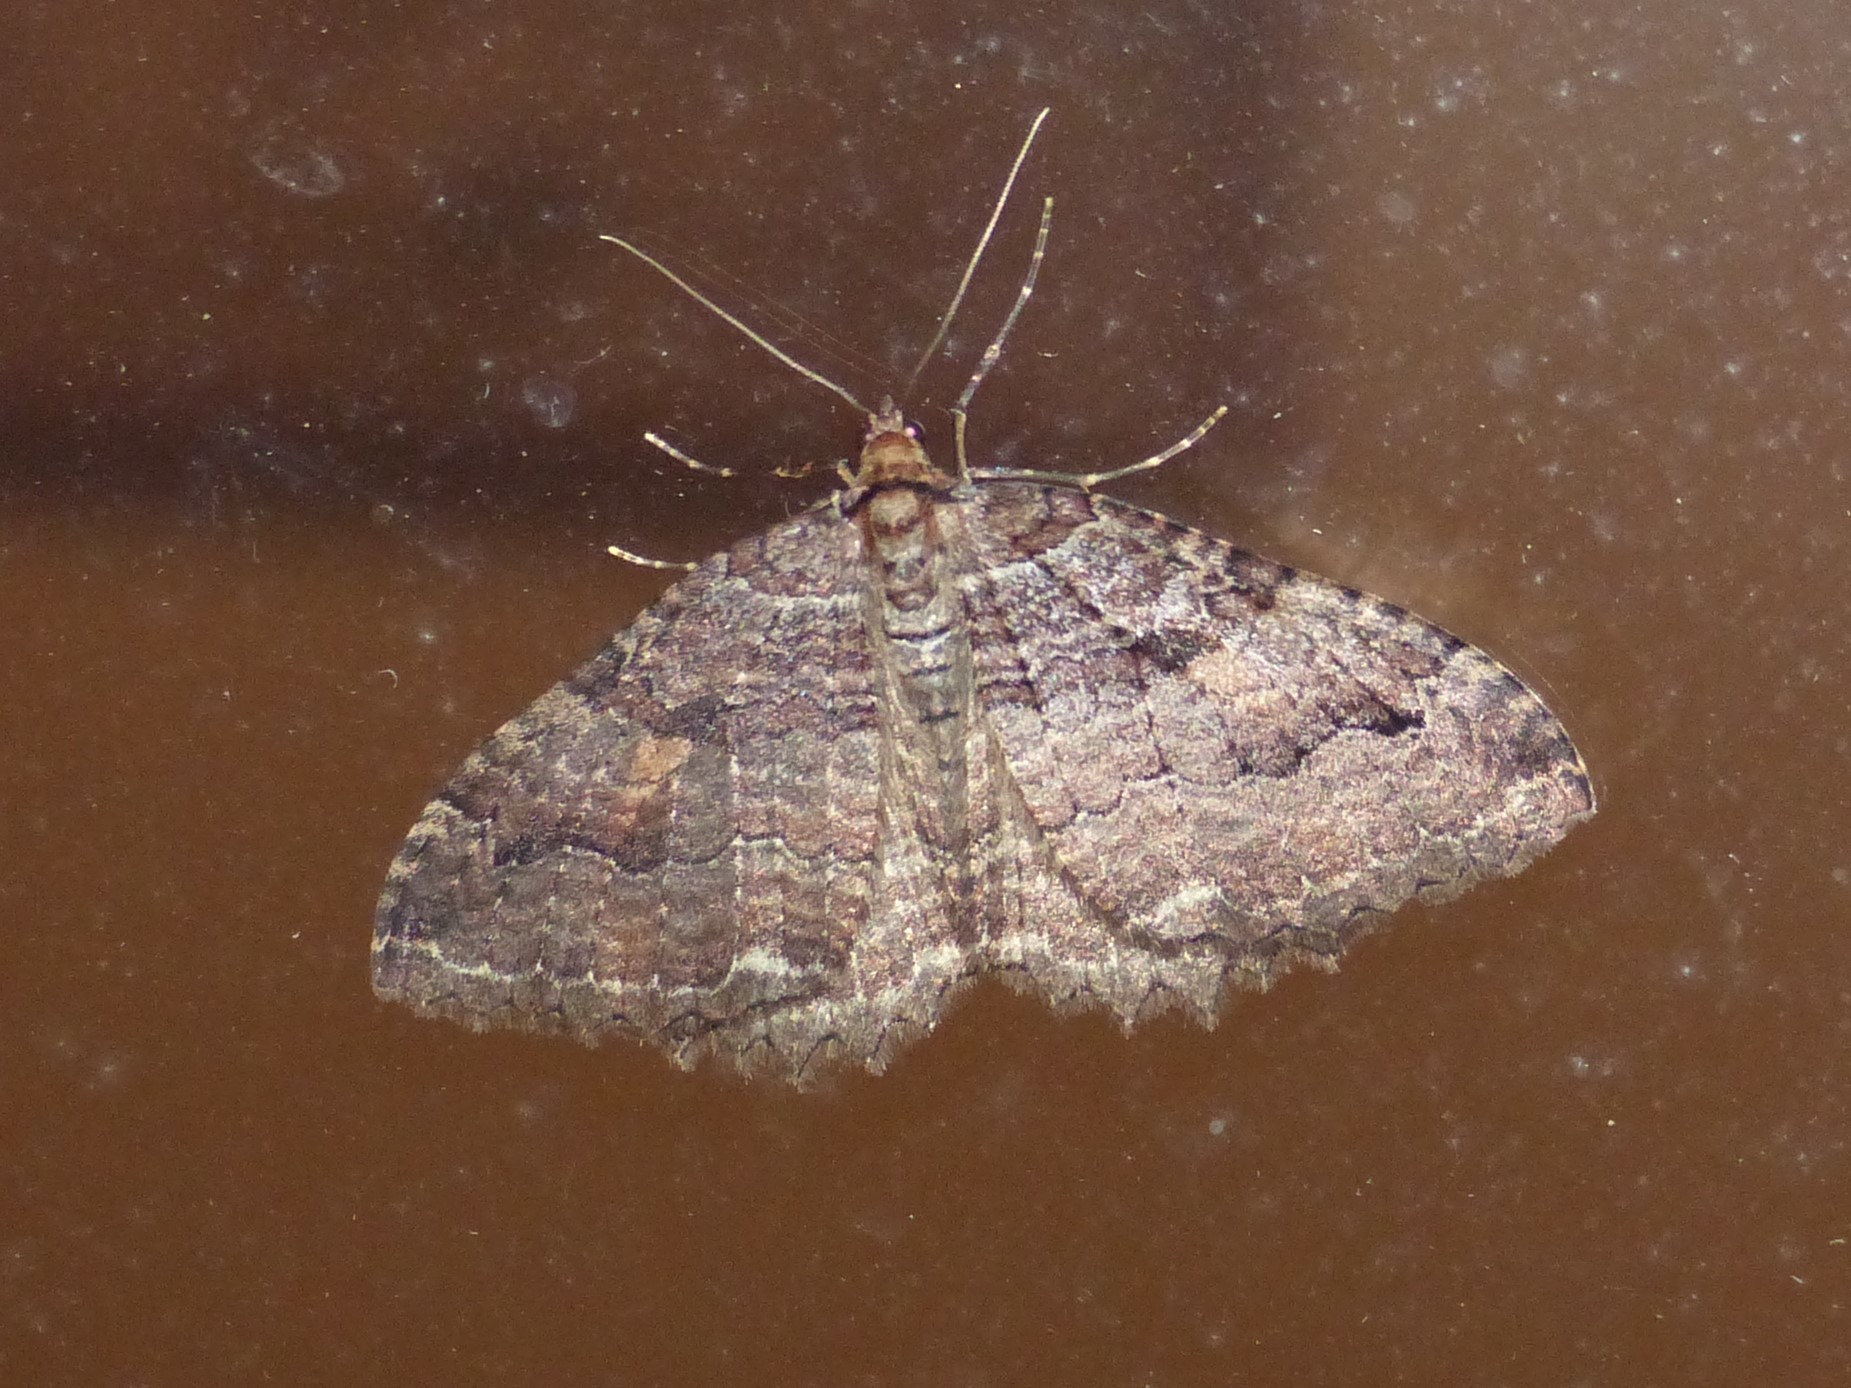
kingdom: Animalia
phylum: Arthropoda
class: Insecta
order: Lepidoptera
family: Geometridae
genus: Triphosa
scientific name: Triphosa haesitata
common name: Tissue moth
